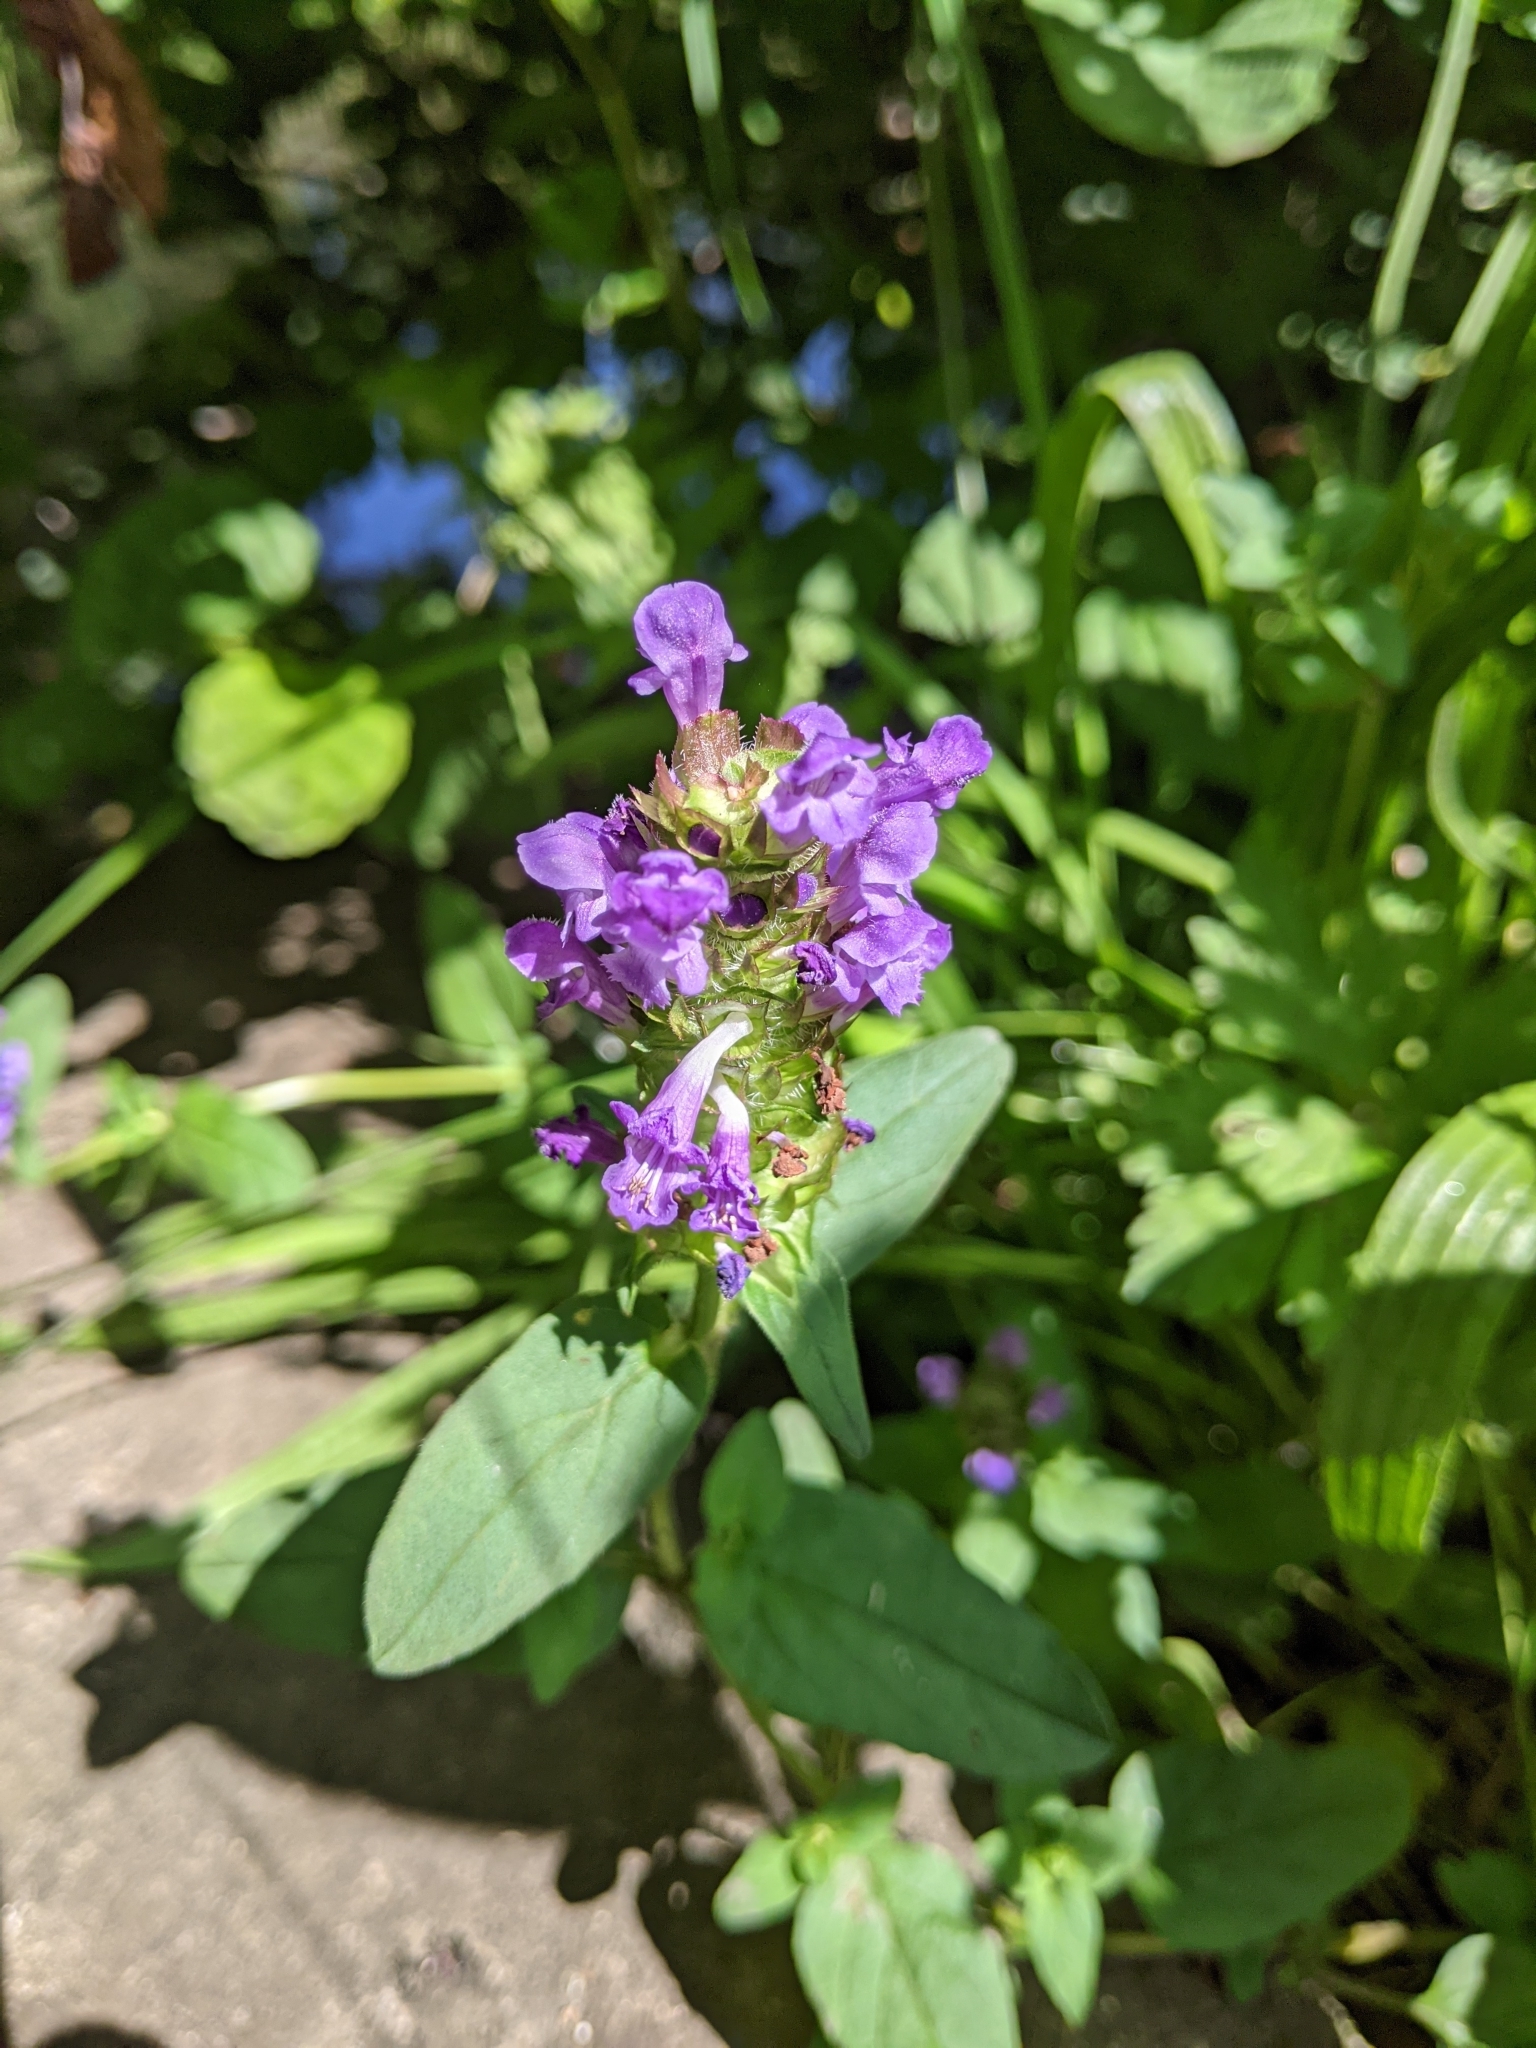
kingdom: Plantae
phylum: Tracheophyta
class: Magnoliopsida
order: Lamiales
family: Lamiaceae
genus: Prunella
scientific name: Prunella vulgaris
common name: Heal-all
